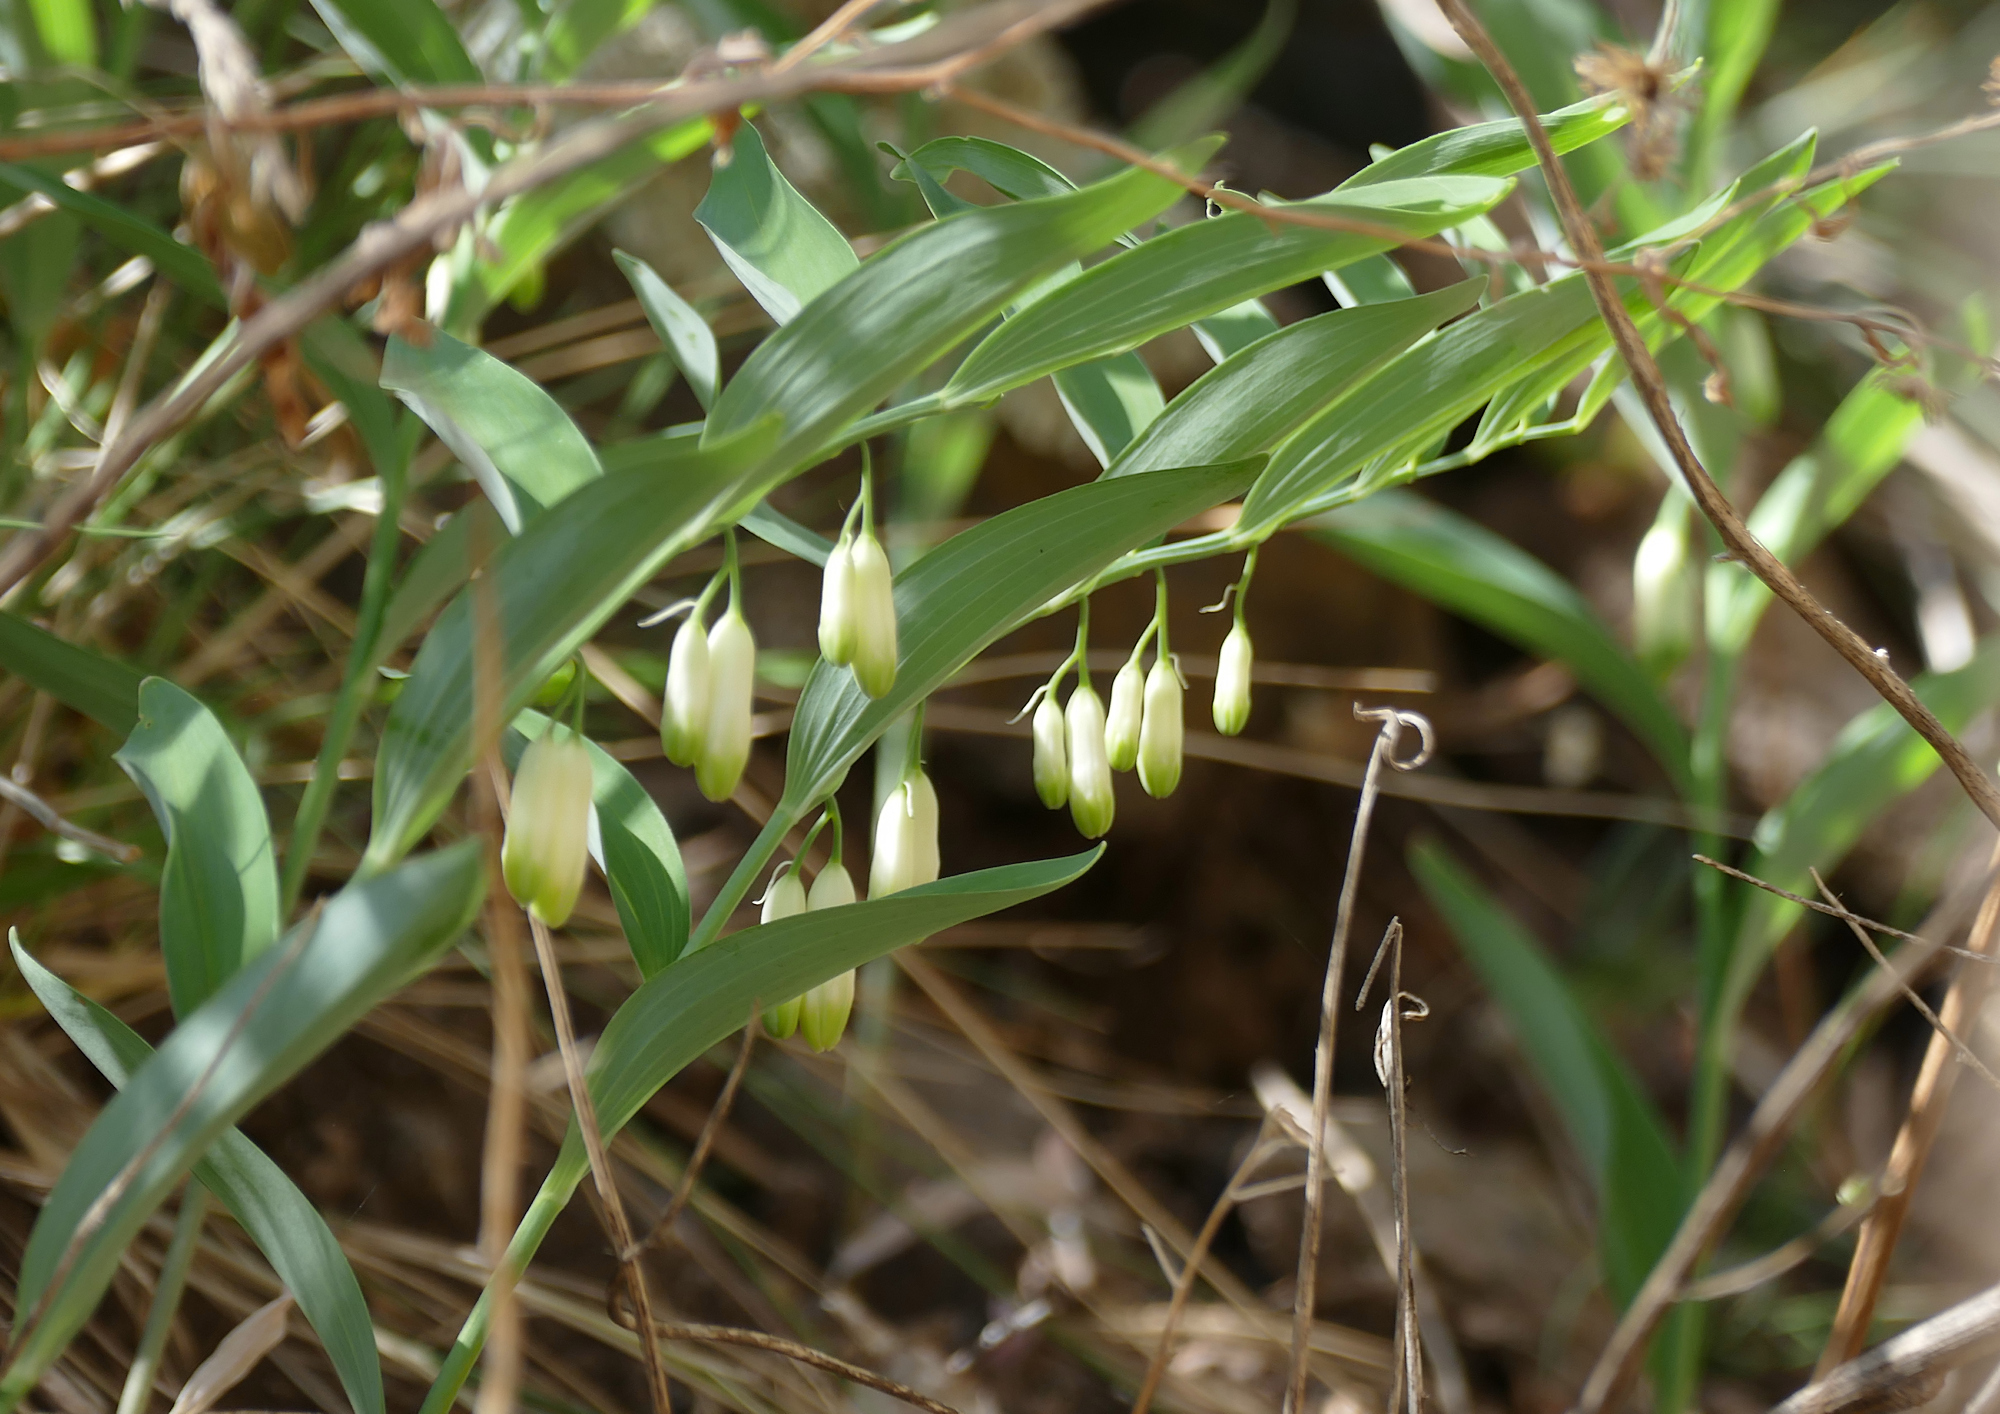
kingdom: Plantae
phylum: Tracheophyta
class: Liliopsida
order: Asparagales
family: Asparagaceae
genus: Polygonatum
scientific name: Polygonatum biflorum
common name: American solomon's-seal
